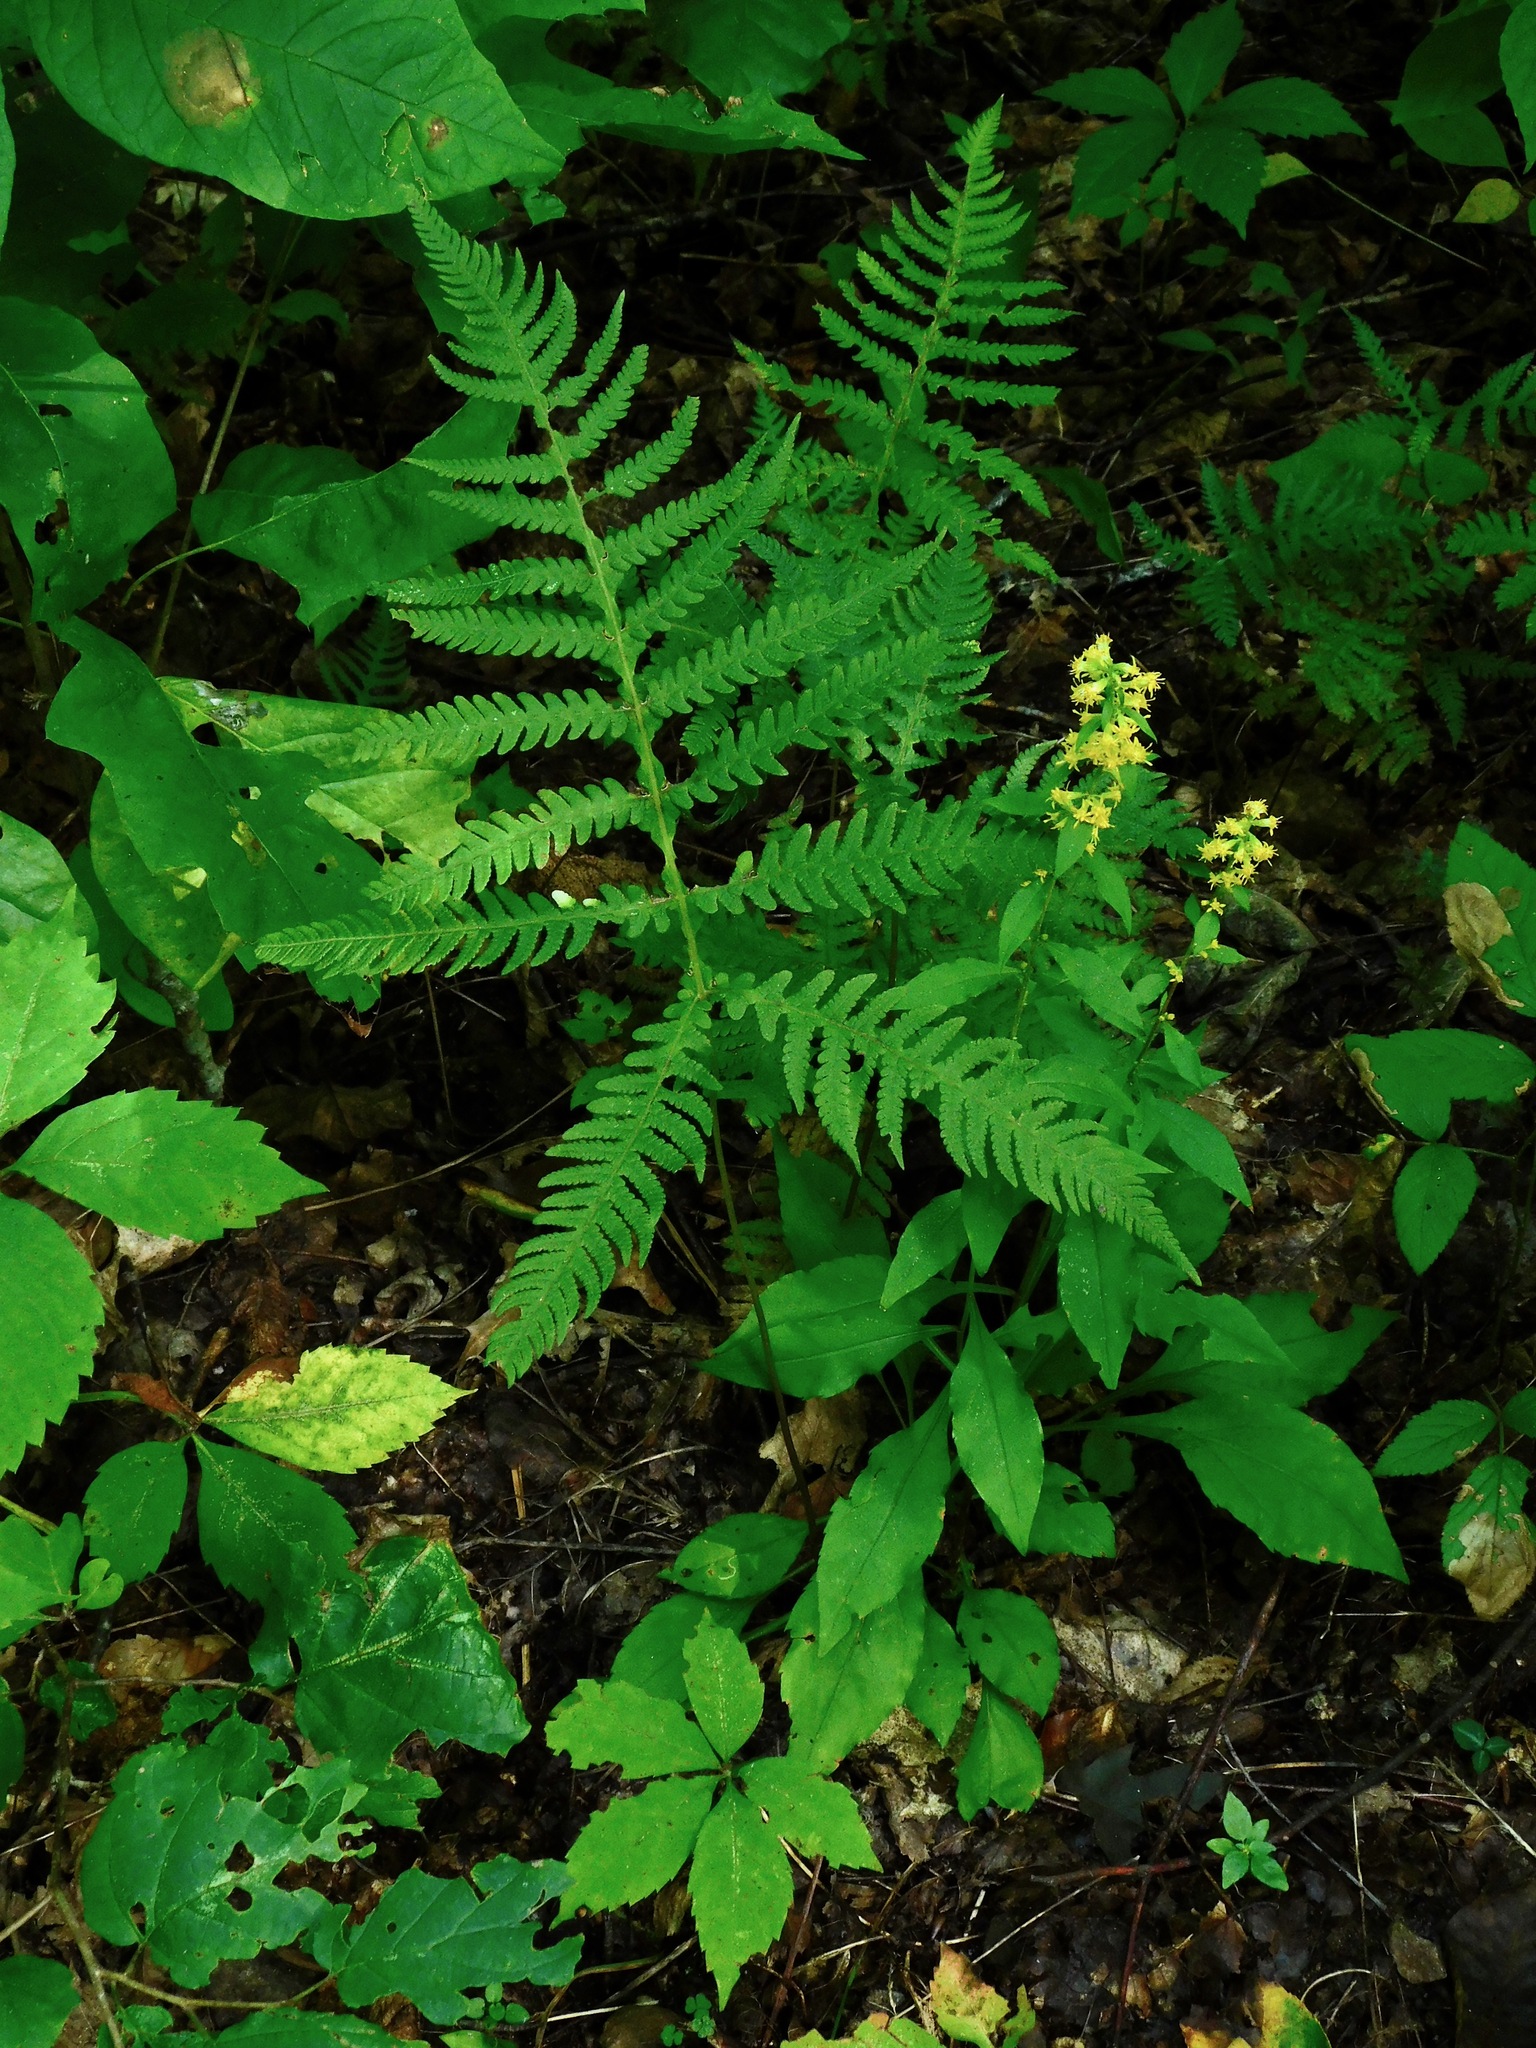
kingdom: Plantae
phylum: Tracheophyta
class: Polypodiopsida
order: Polypodiales
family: Thelypteridaceae
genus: Phegopteris
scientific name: Phegopteris hexagonoptera
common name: Broad beech fern
